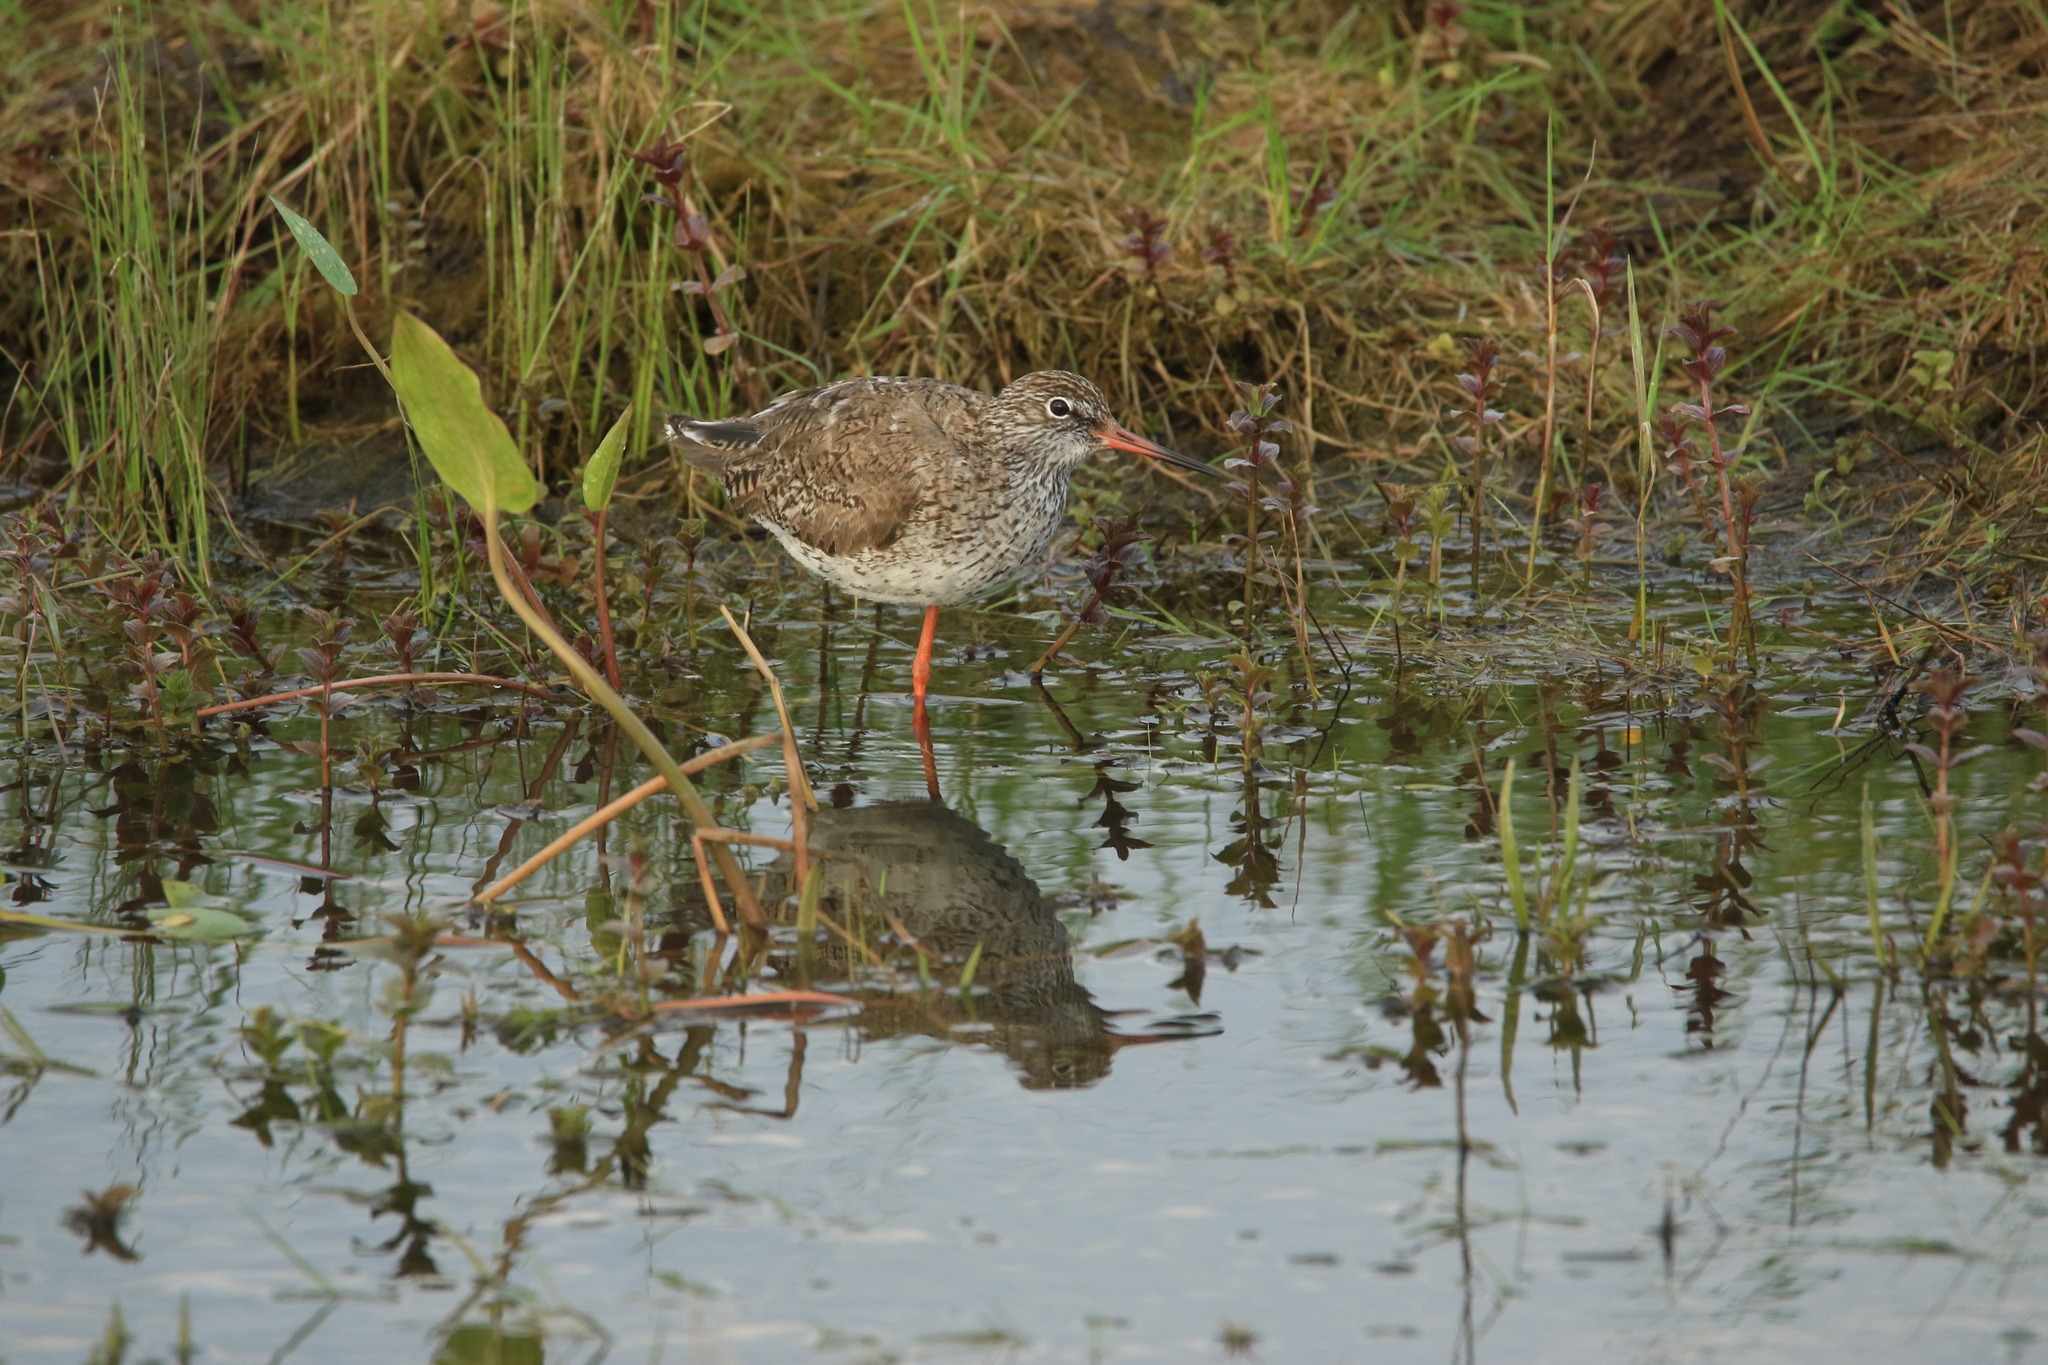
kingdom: Animalia
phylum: Chordata
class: Aves
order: Charadriiformes
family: Scolopacidae
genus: Tringa
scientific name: Tringa totanus
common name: Common redshank
